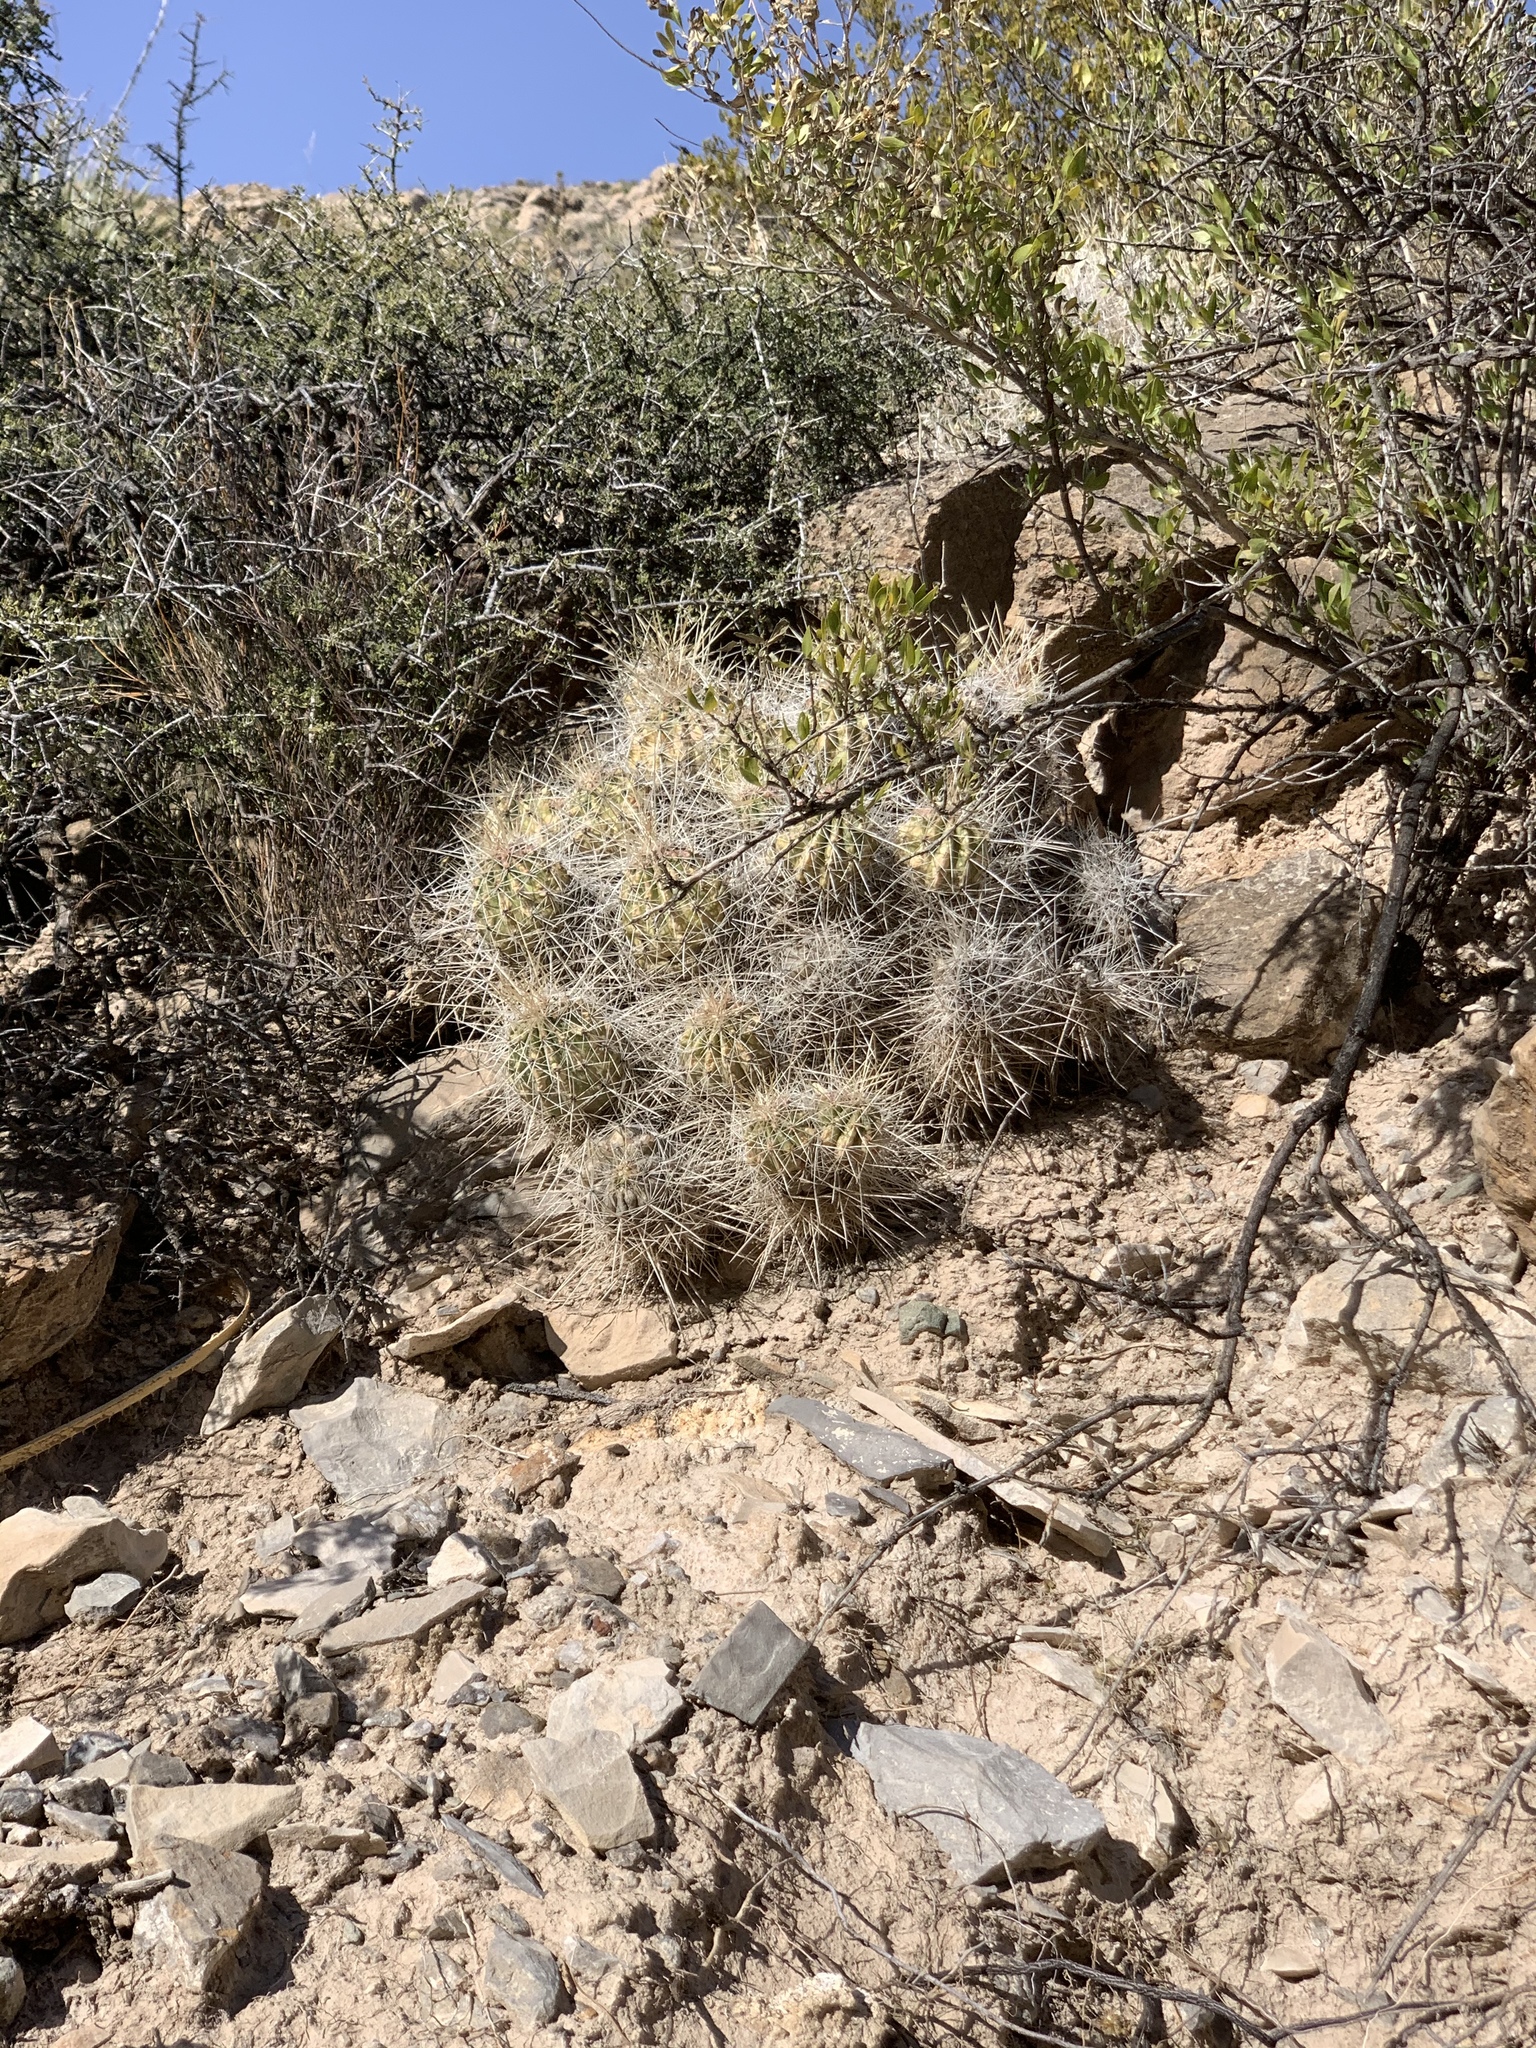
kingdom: Plantae
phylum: Tracheophyta
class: Magnoliopsida
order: Caryophyllales
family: Cactaceae
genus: Echinocereus
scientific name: Echinocereus stramineus
